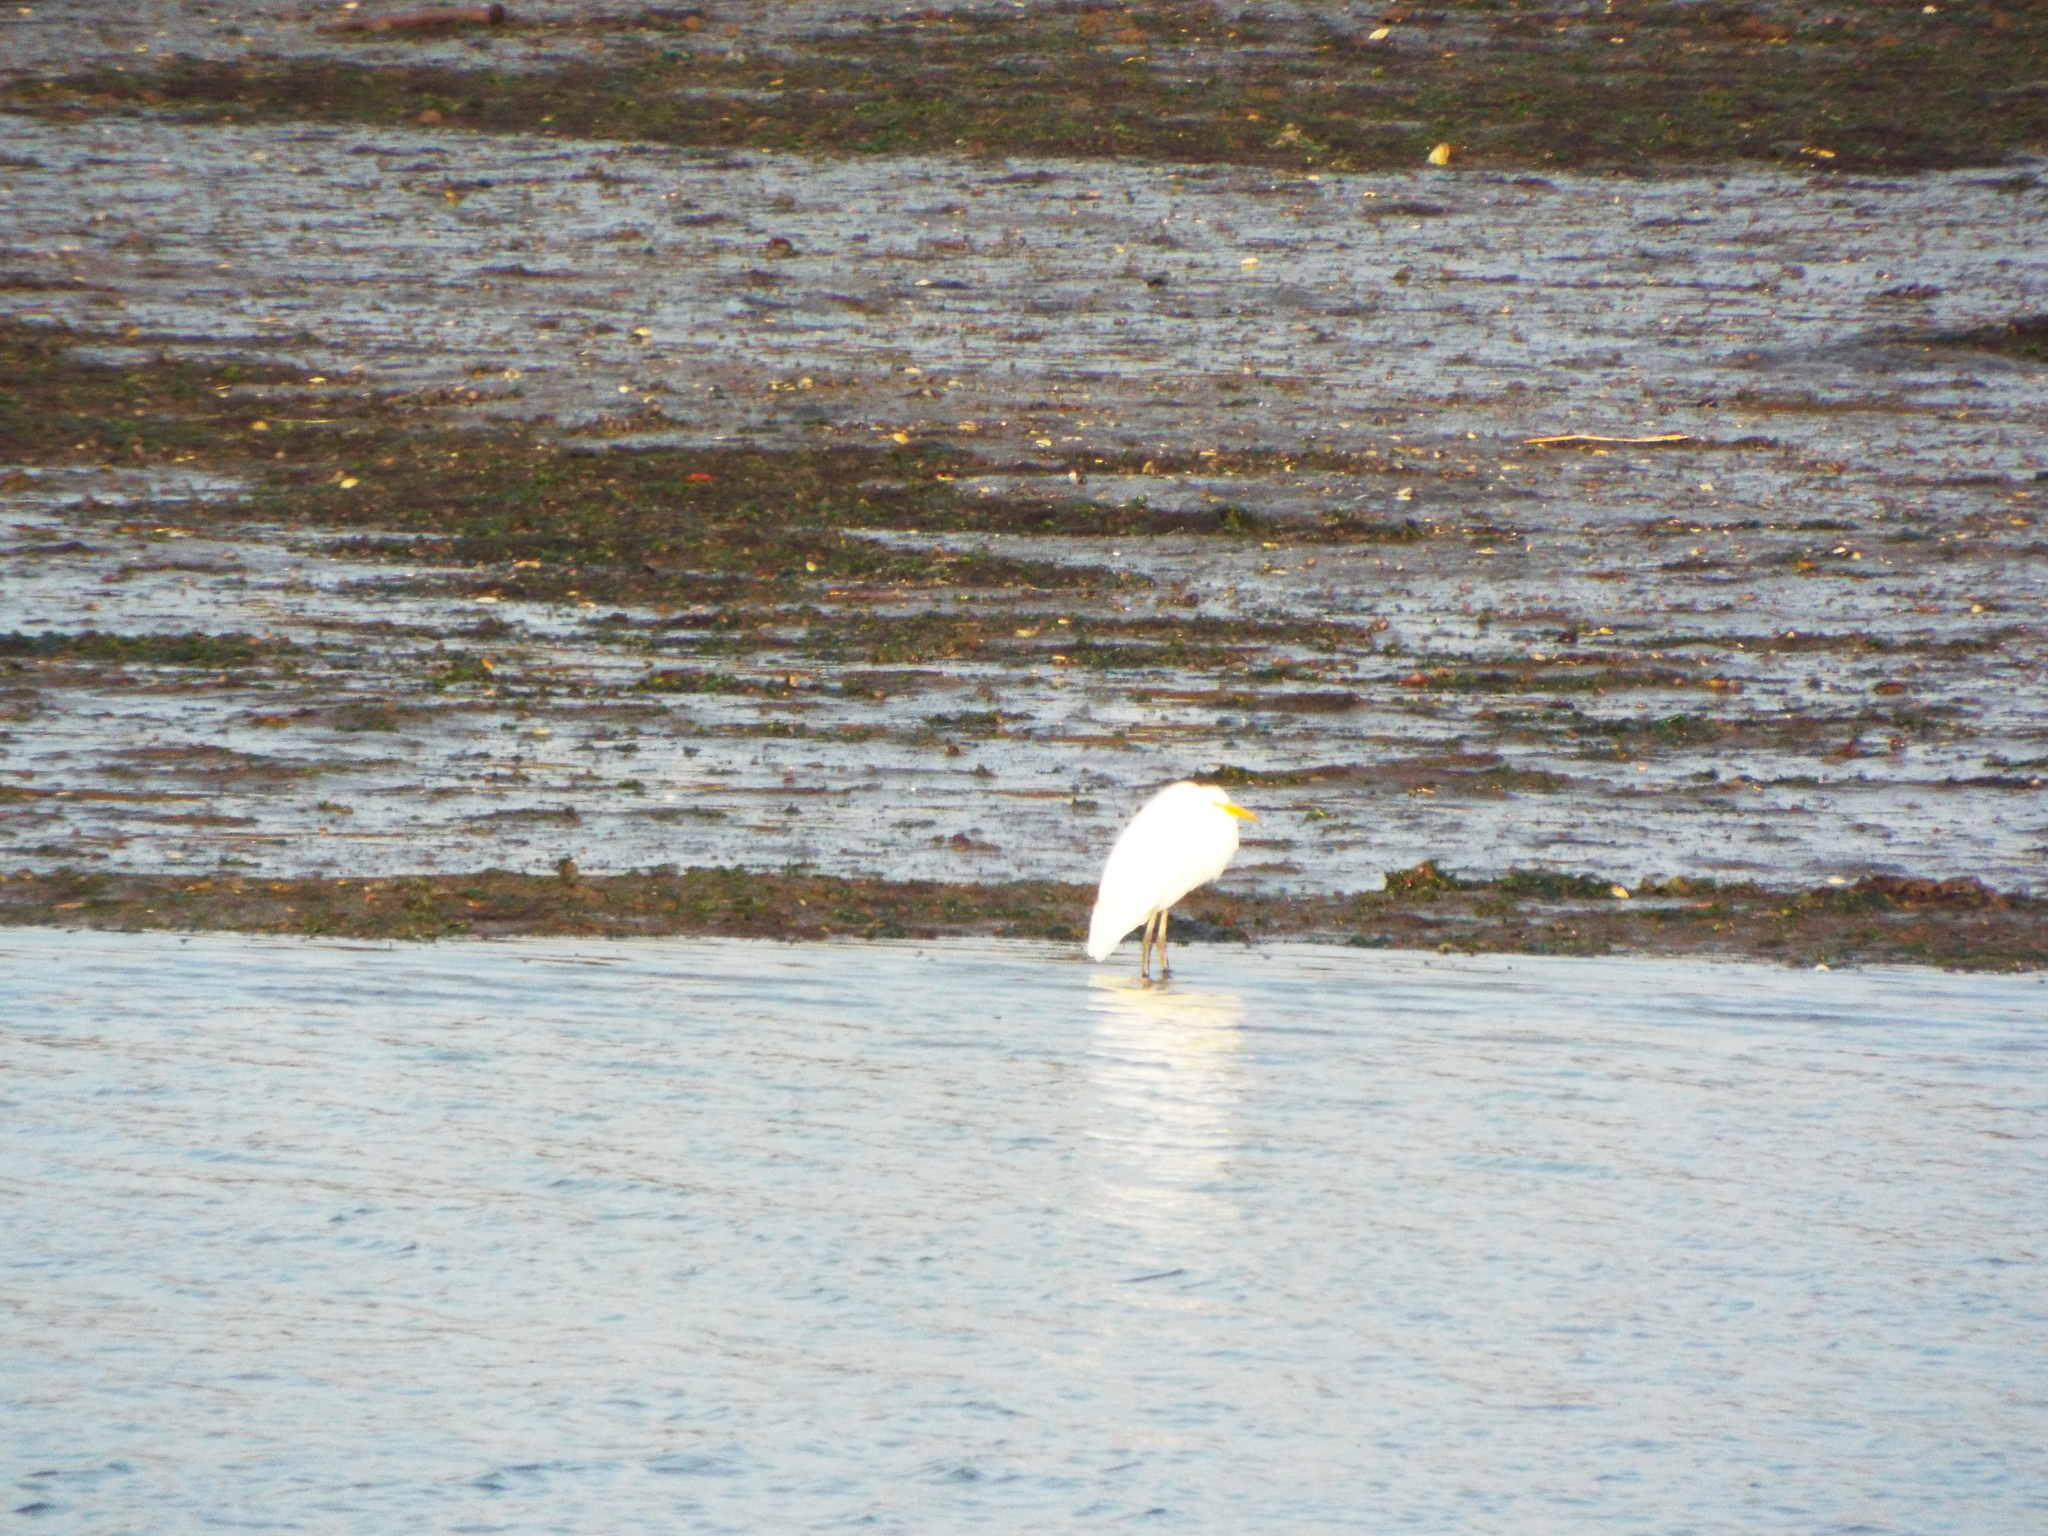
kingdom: Animalia
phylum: Chordata
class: Aves
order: Pelecaniformes
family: Ardeidae
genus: Ardea
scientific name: Ardea alba
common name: Great egret
